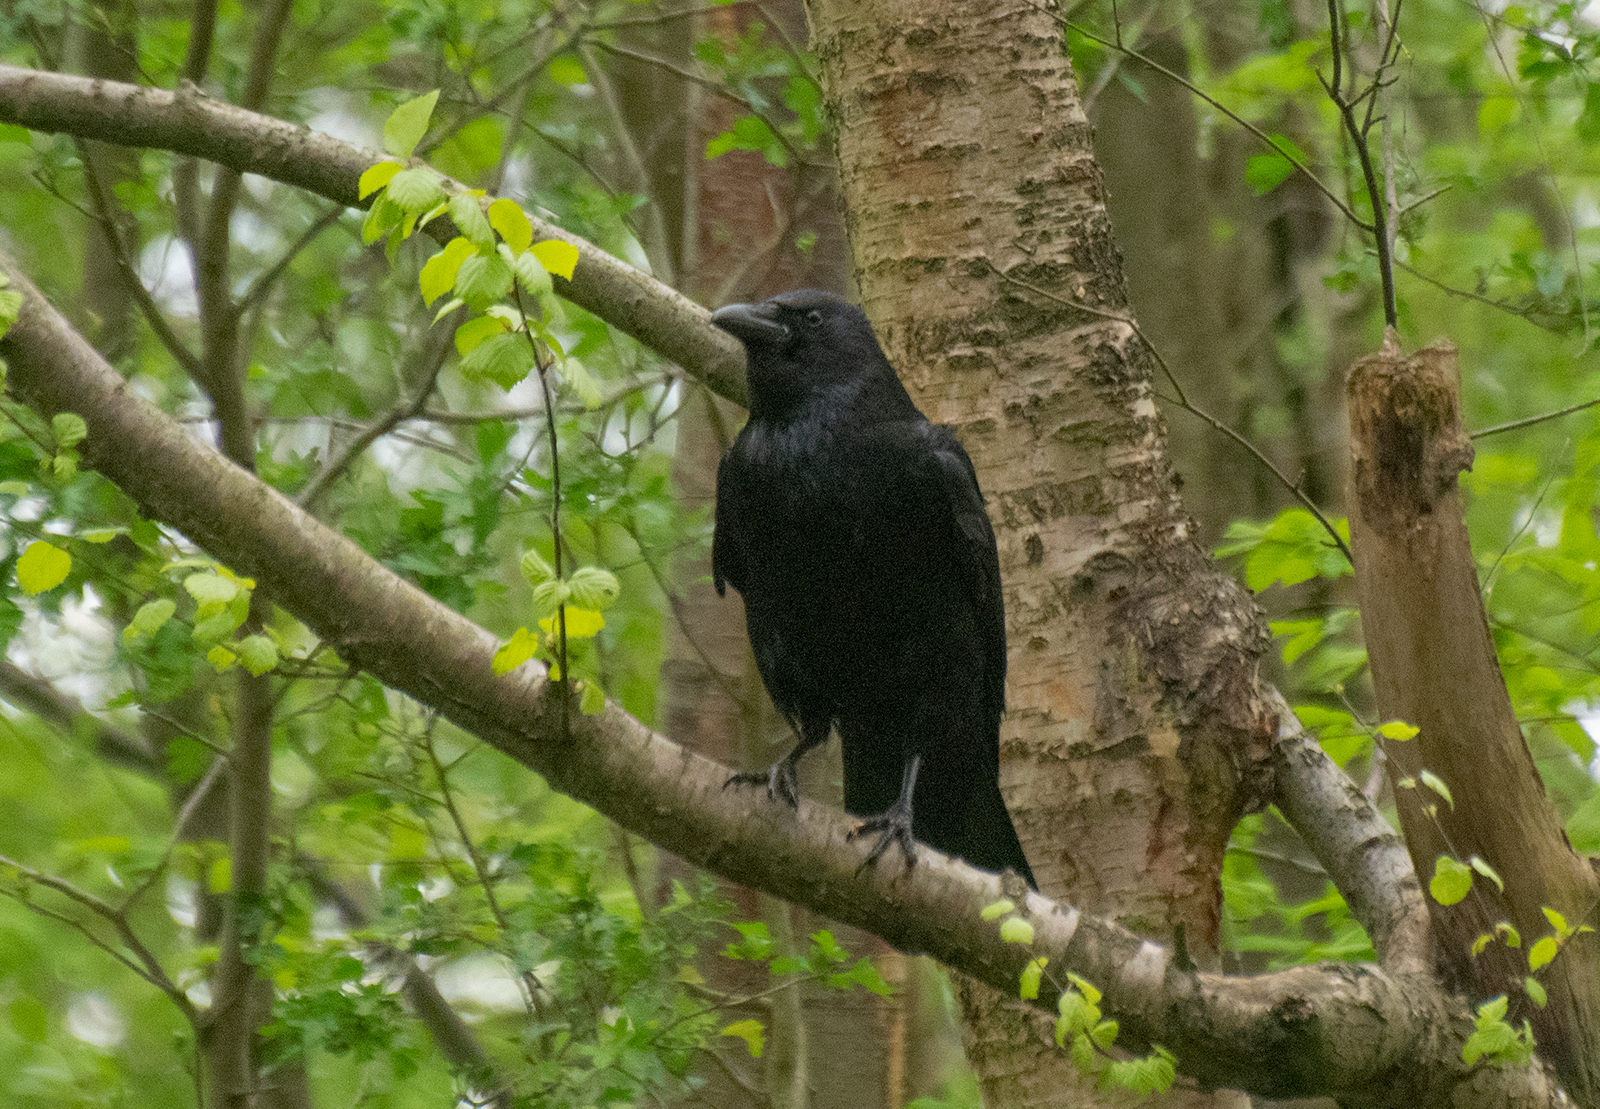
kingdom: Animalia
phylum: Chordata
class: Aves
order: Passeriformes
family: Corvidae
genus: Corvus
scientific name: Corvus corone
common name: Carrion crow
